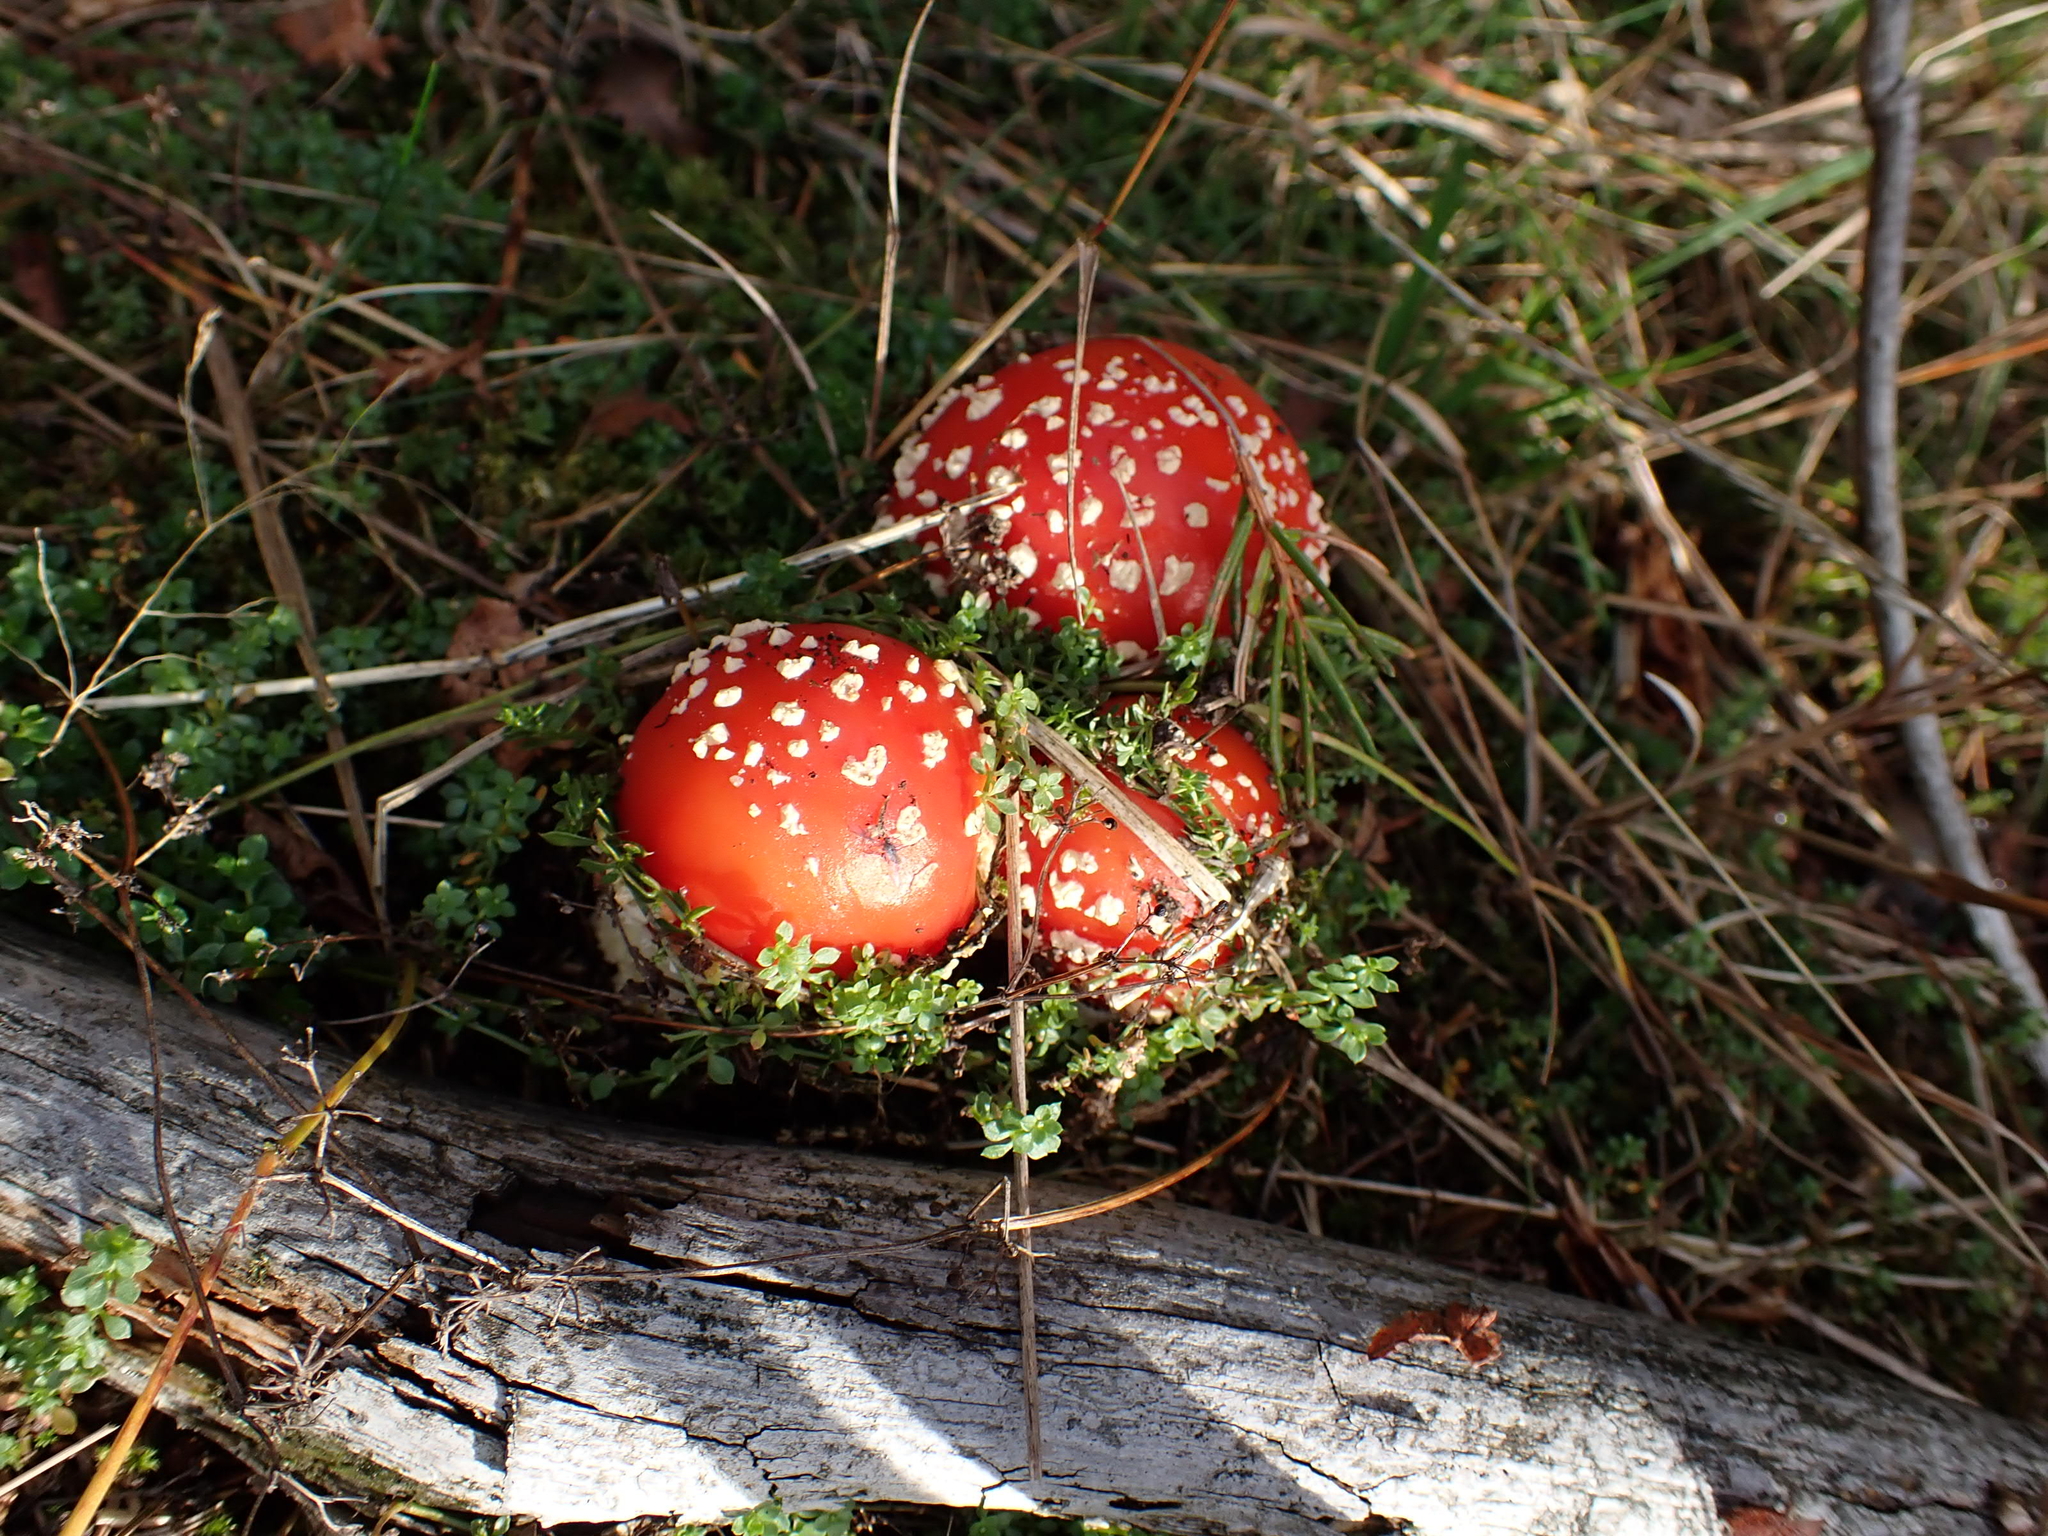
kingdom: Fungi
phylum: Basidiomycota
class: Agaricomycetes
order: Agaricales
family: Amanitaceae
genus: Amanita
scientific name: Amanita muscaria
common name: Fly agaric
